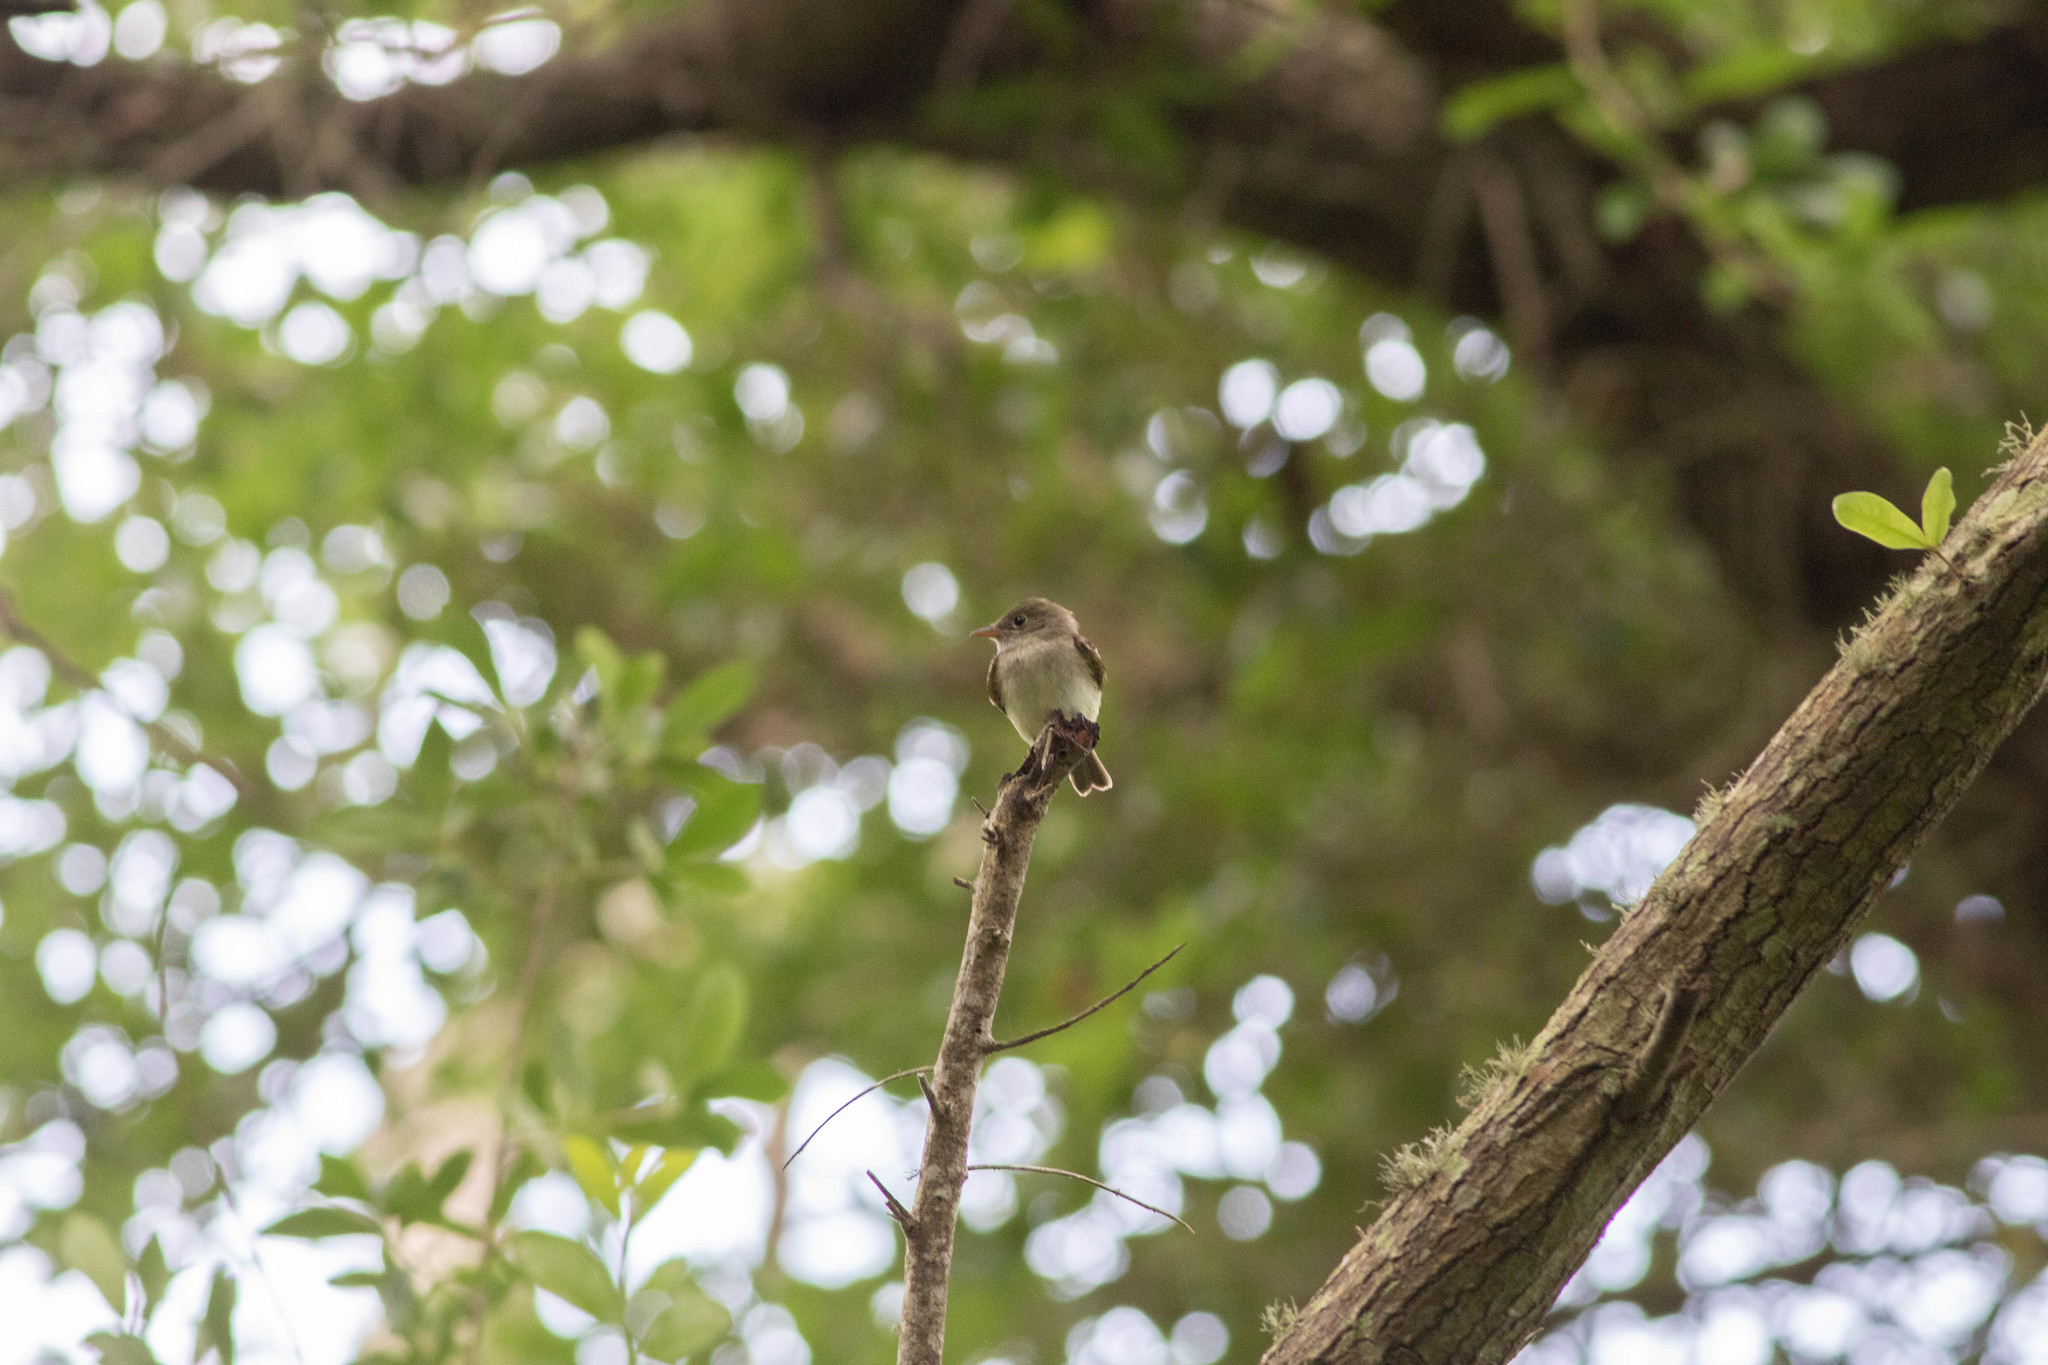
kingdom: Animalia
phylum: Chordata
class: Aves
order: Passeriformes
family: Tyrannidae
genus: Contopus
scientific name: Contopus virens
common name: Eastern wood-pewee
